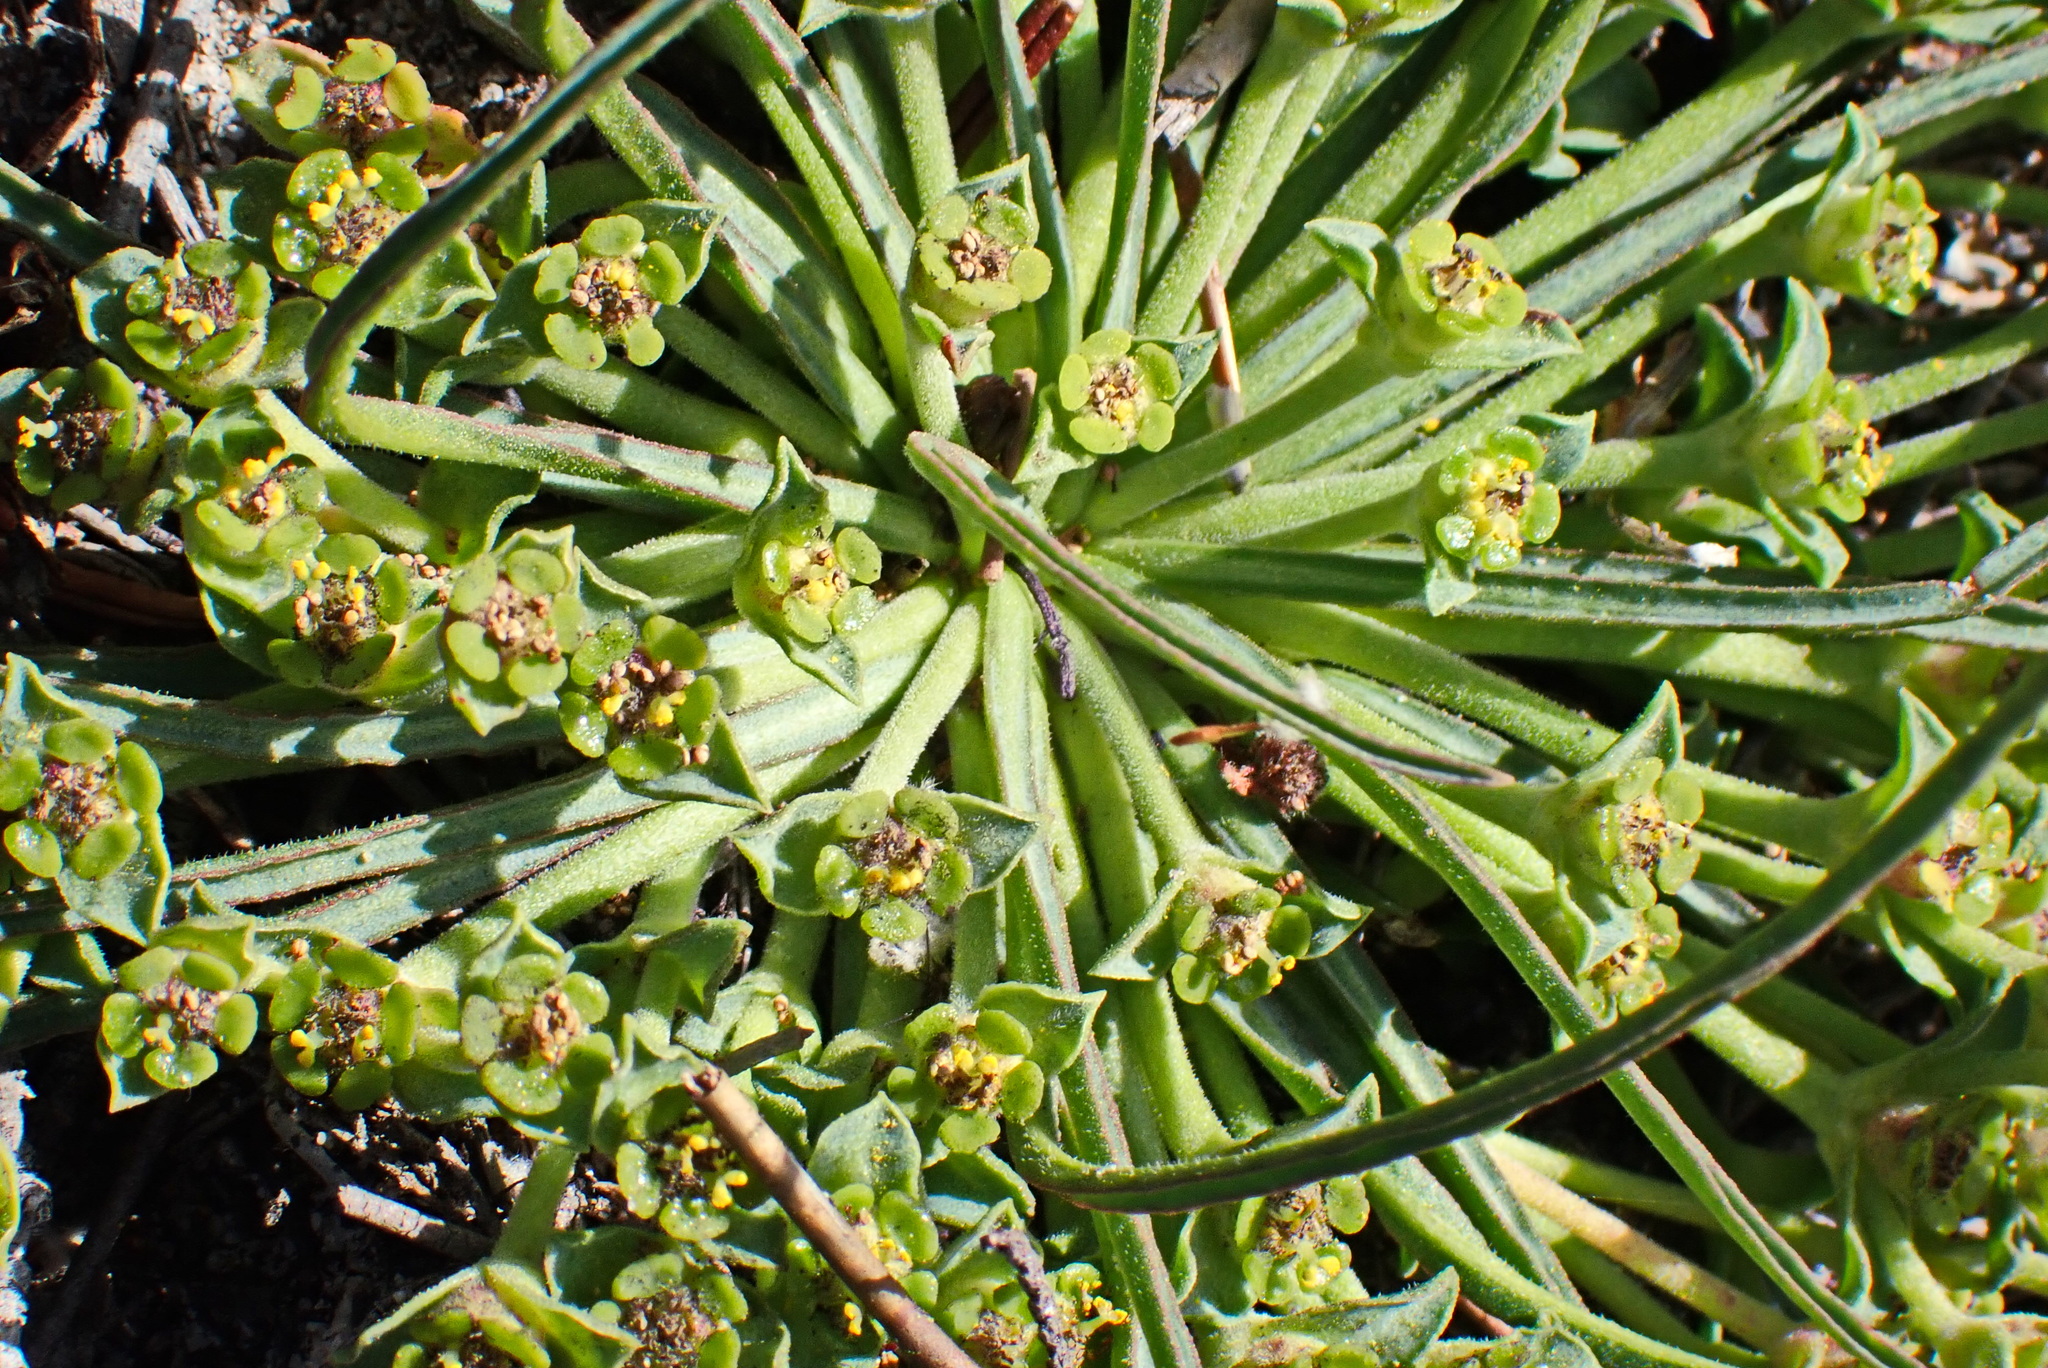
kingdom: Plantae
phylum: Tracheophyta
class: Magnoliopsida
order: Malpighiales
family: Euphorbiaceae
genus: Euphorbia
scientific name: Euphorbia silenifolia
